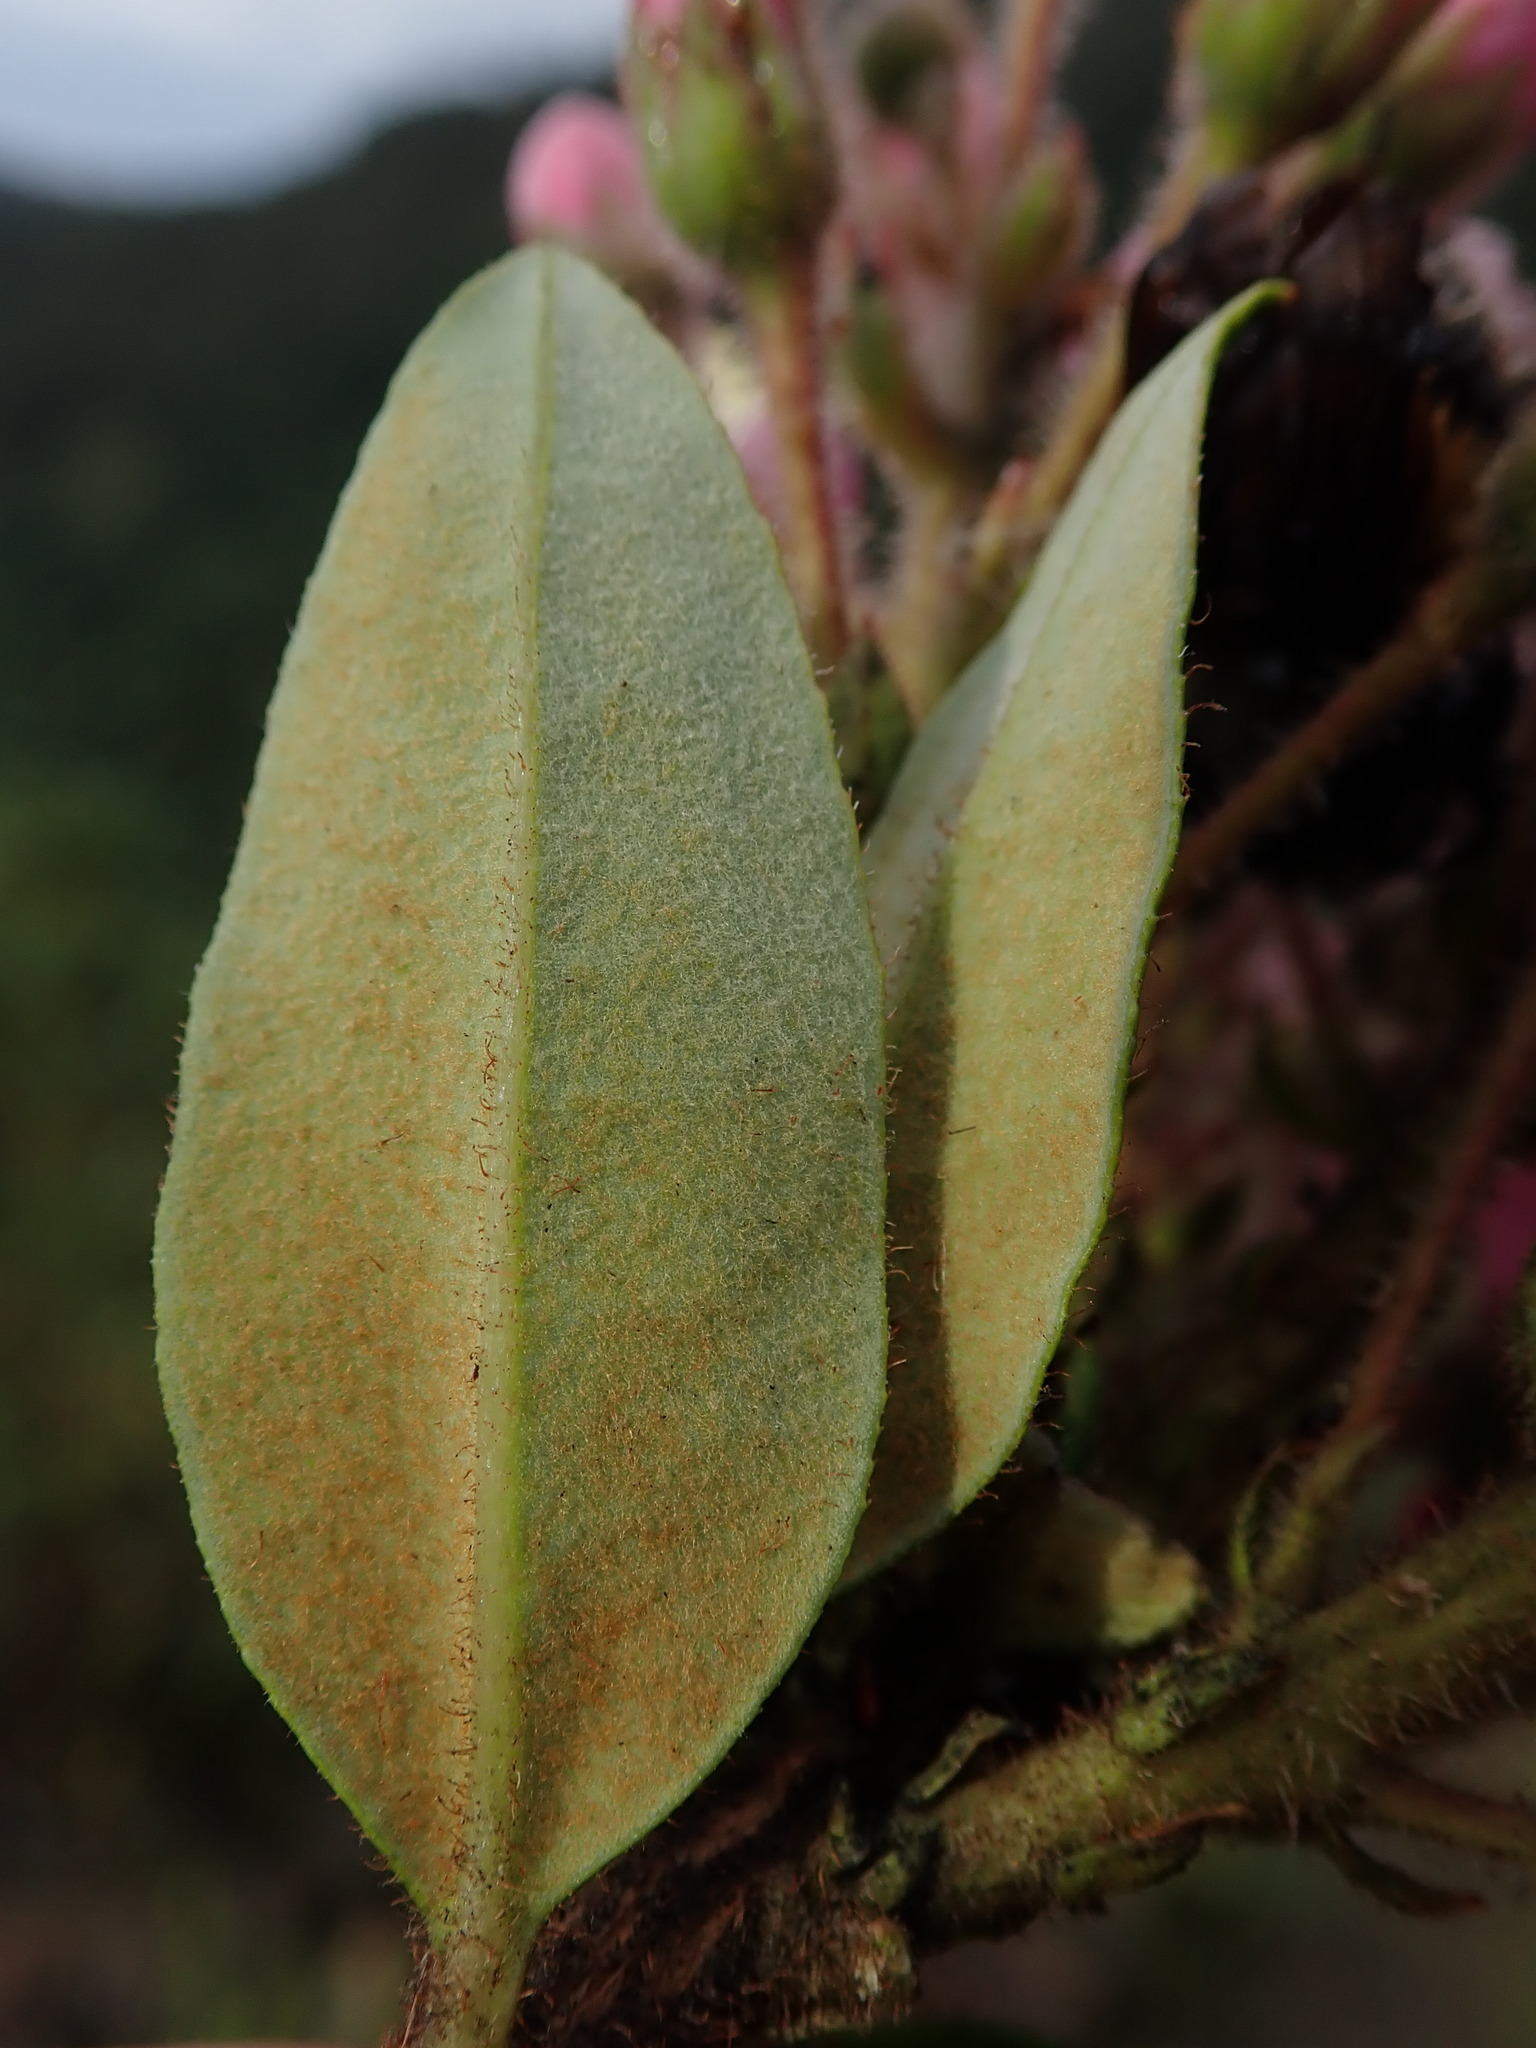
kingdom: Plantae
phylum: Tracheophyta
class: Magnoliopsida
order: Ericales
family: Ericaceae
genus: Bejaria
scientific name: Bejaria resinosa
